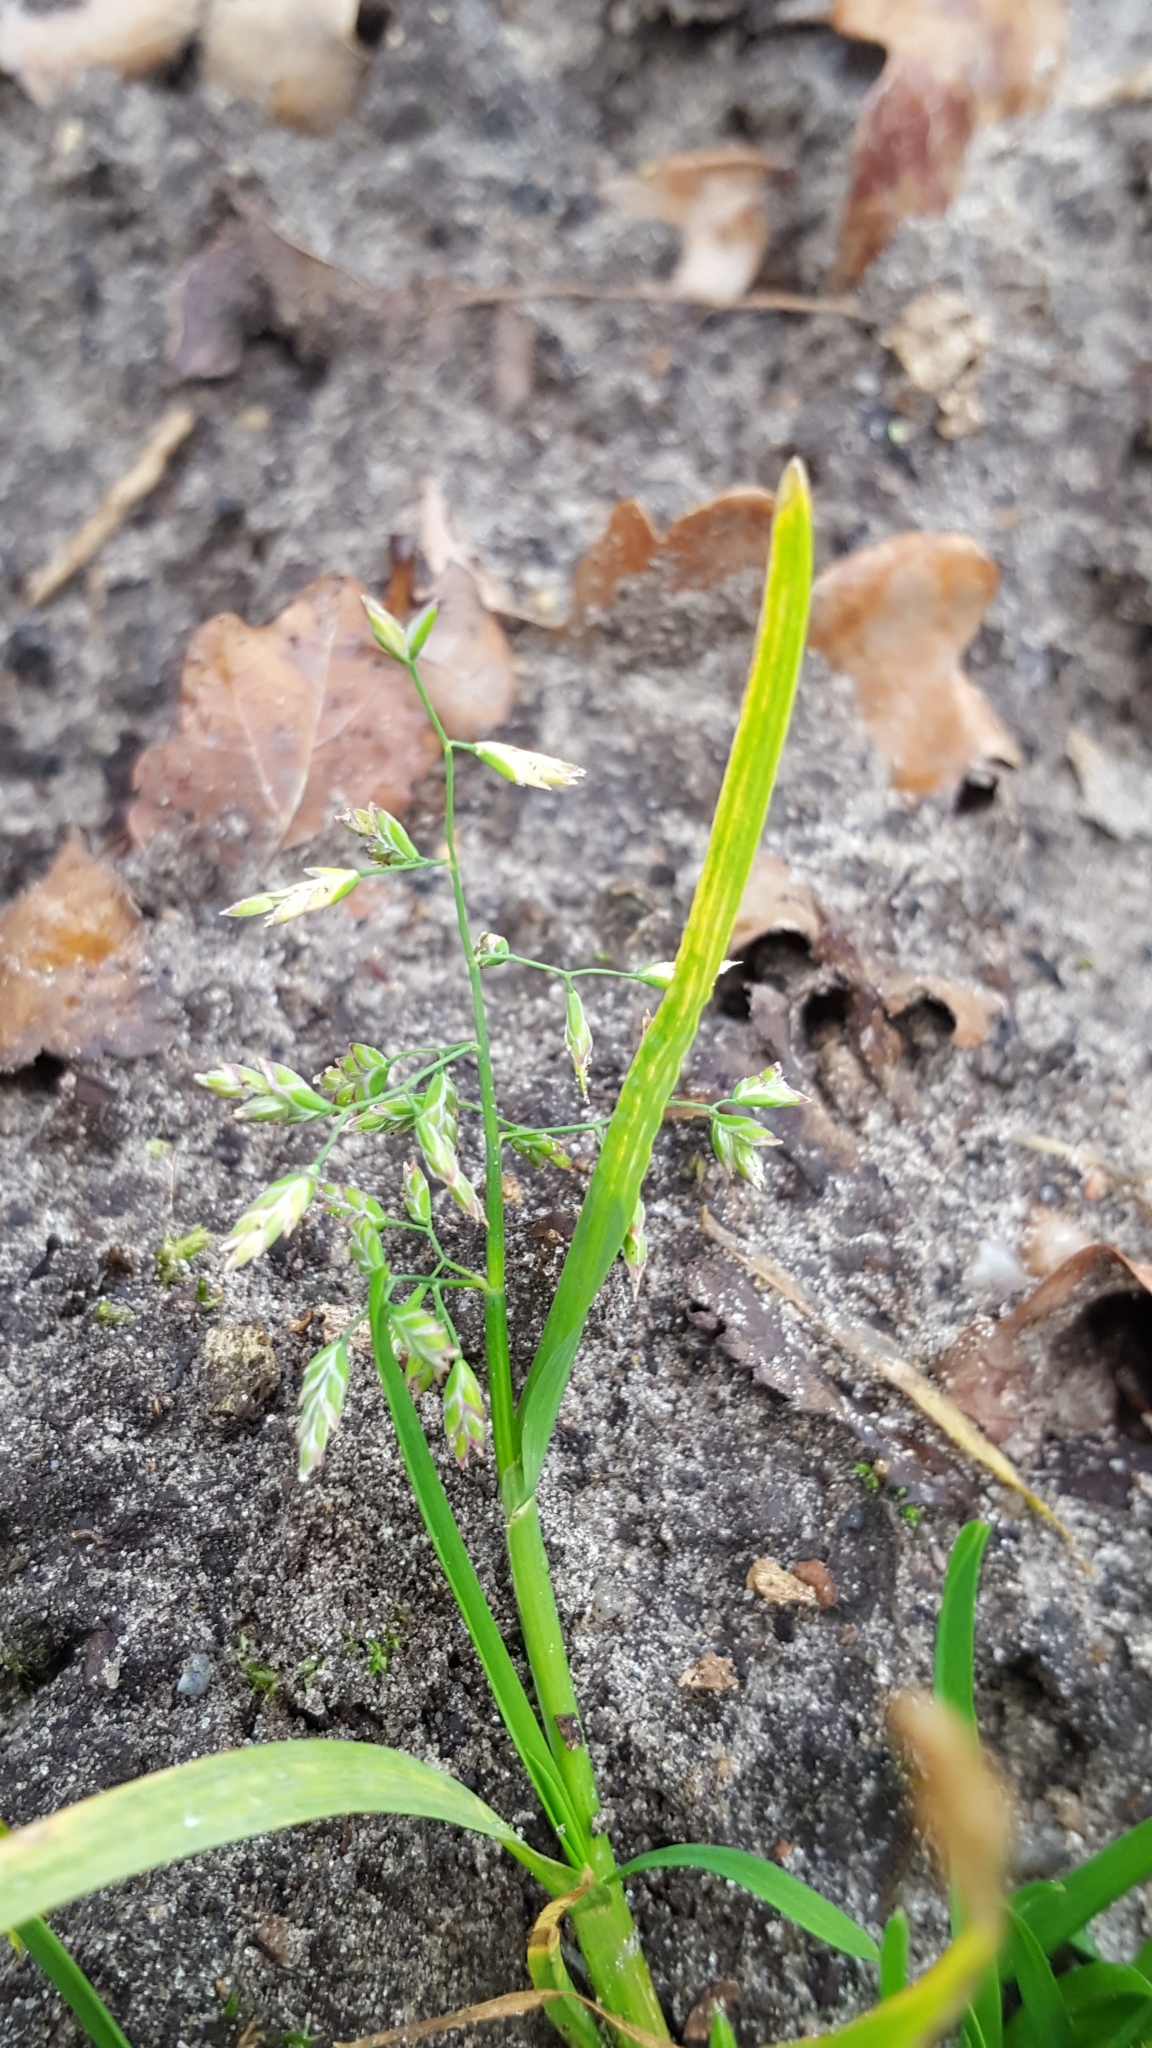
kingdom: Plantae
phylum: Tracheophyta
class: Liliopsida
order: Poales
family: Poaceae
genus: Poa
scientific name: Poa annua
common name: Annual bluegrass
